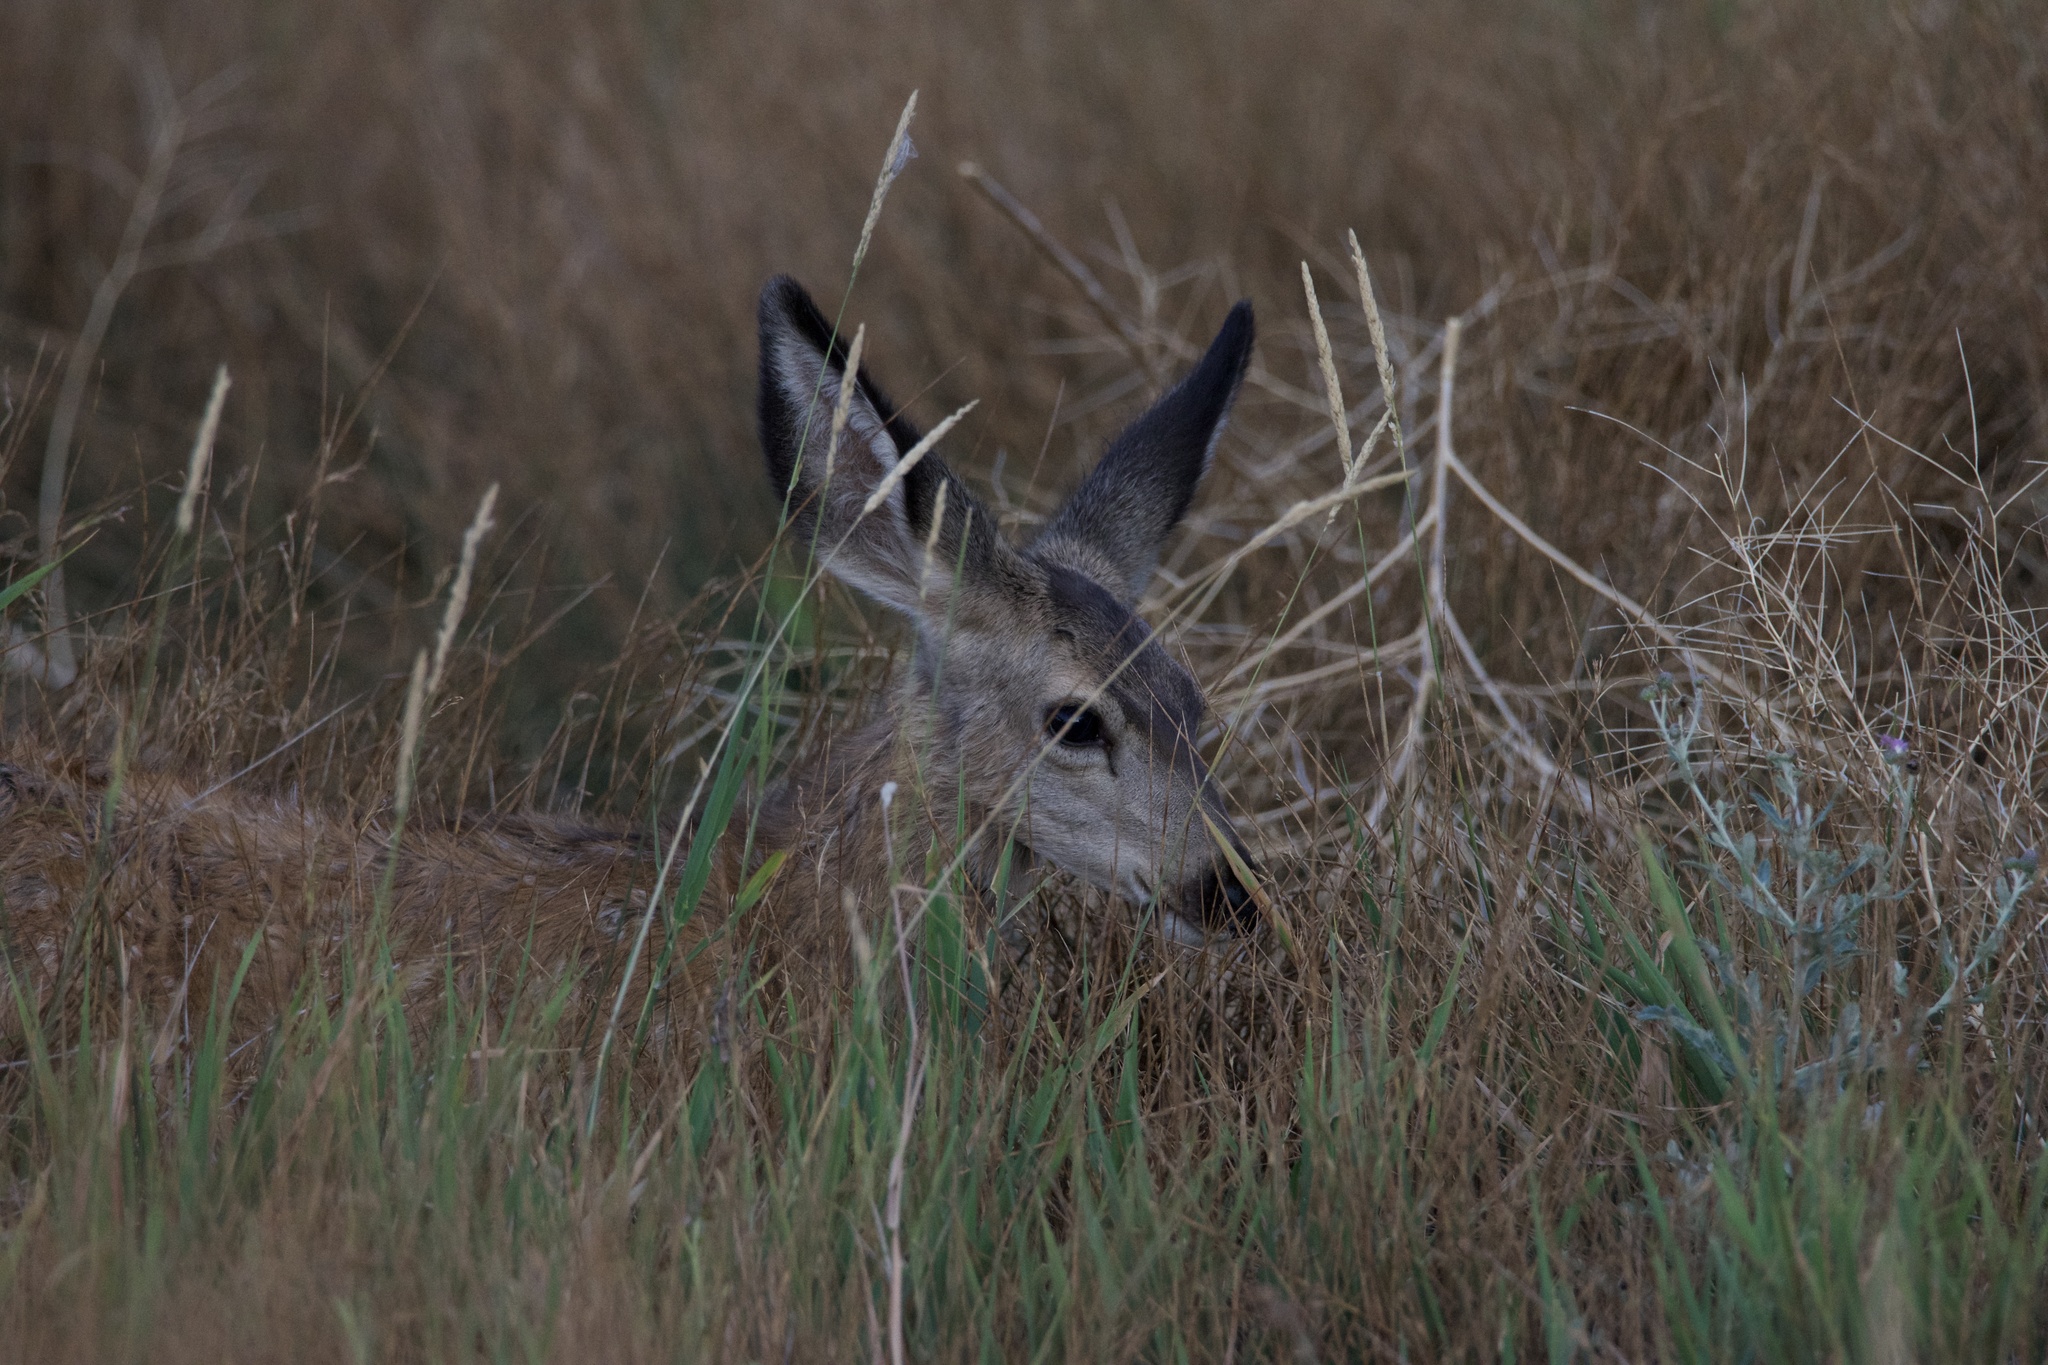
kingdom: Animalia
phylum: Chordata
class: Mammalia
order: Artiodactyla
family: Cervidae
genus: Odocoileus
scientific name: Odocoileus hemionus
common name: Mule deer
